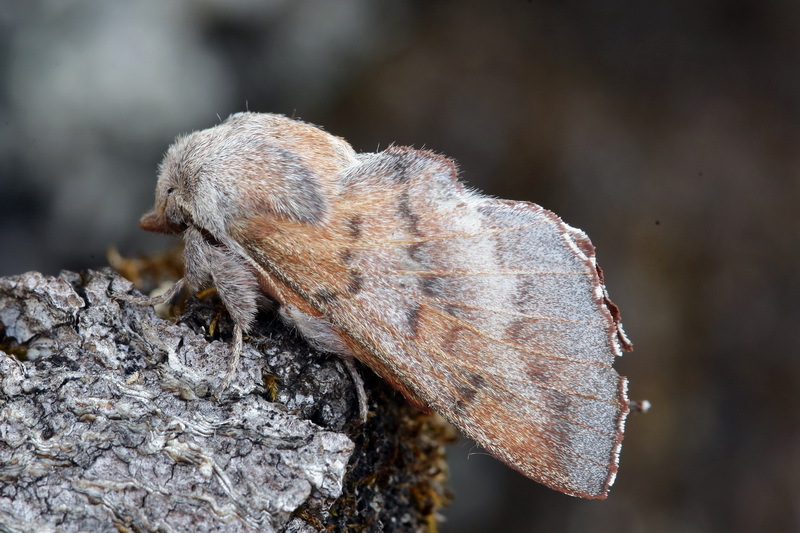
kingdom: Animalia
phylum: Arthropoda
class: Insecta
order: Lepidoptera
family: Lasiocampidae
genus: Phyllodesma
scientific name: Phyllodesma
